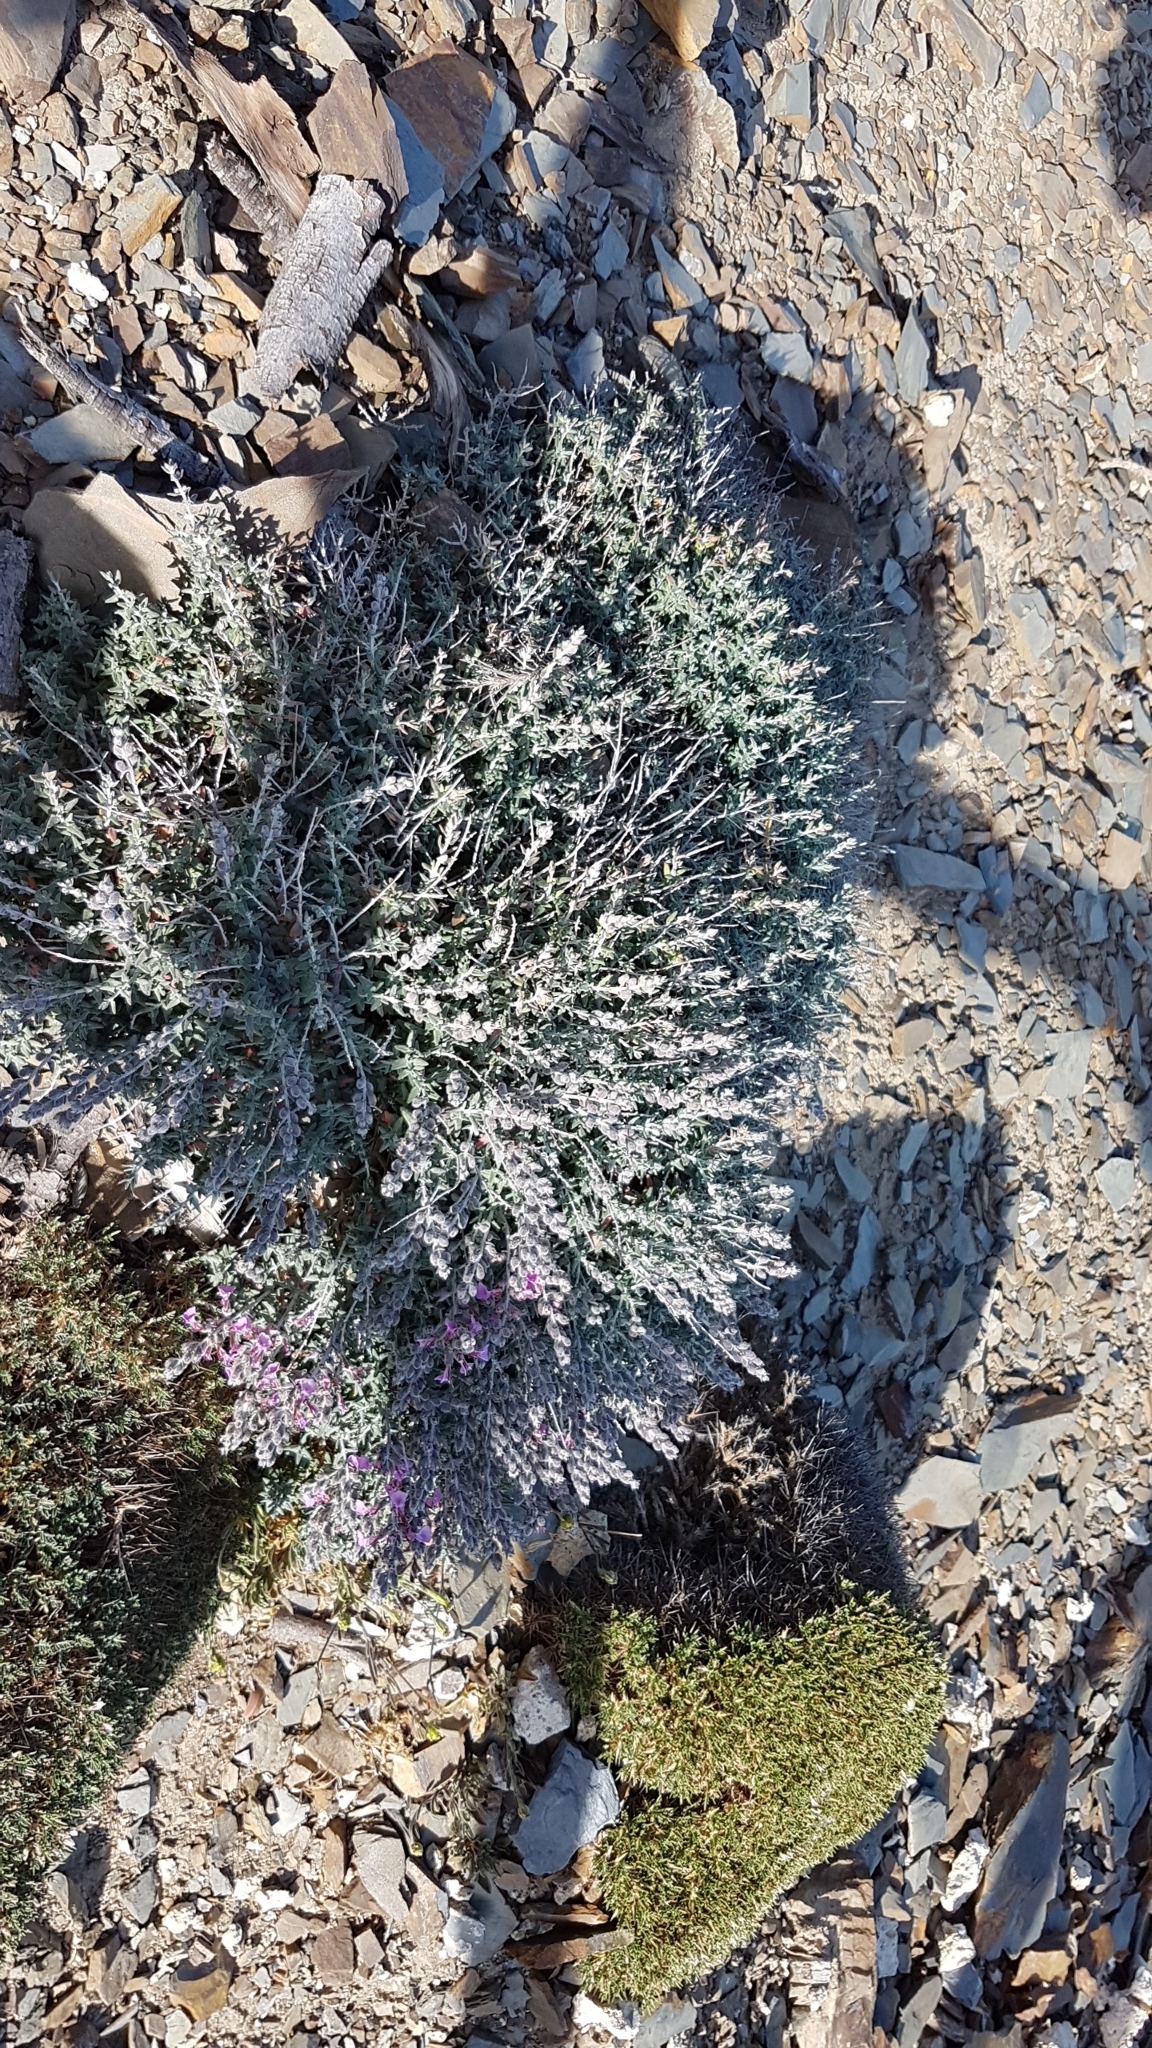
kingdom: Plantae
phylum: Tracheophyta
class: Magnoliopsida
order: Lamiales
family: Lamiaceae
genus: Teucrium
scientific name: Teucrium subspinosum
